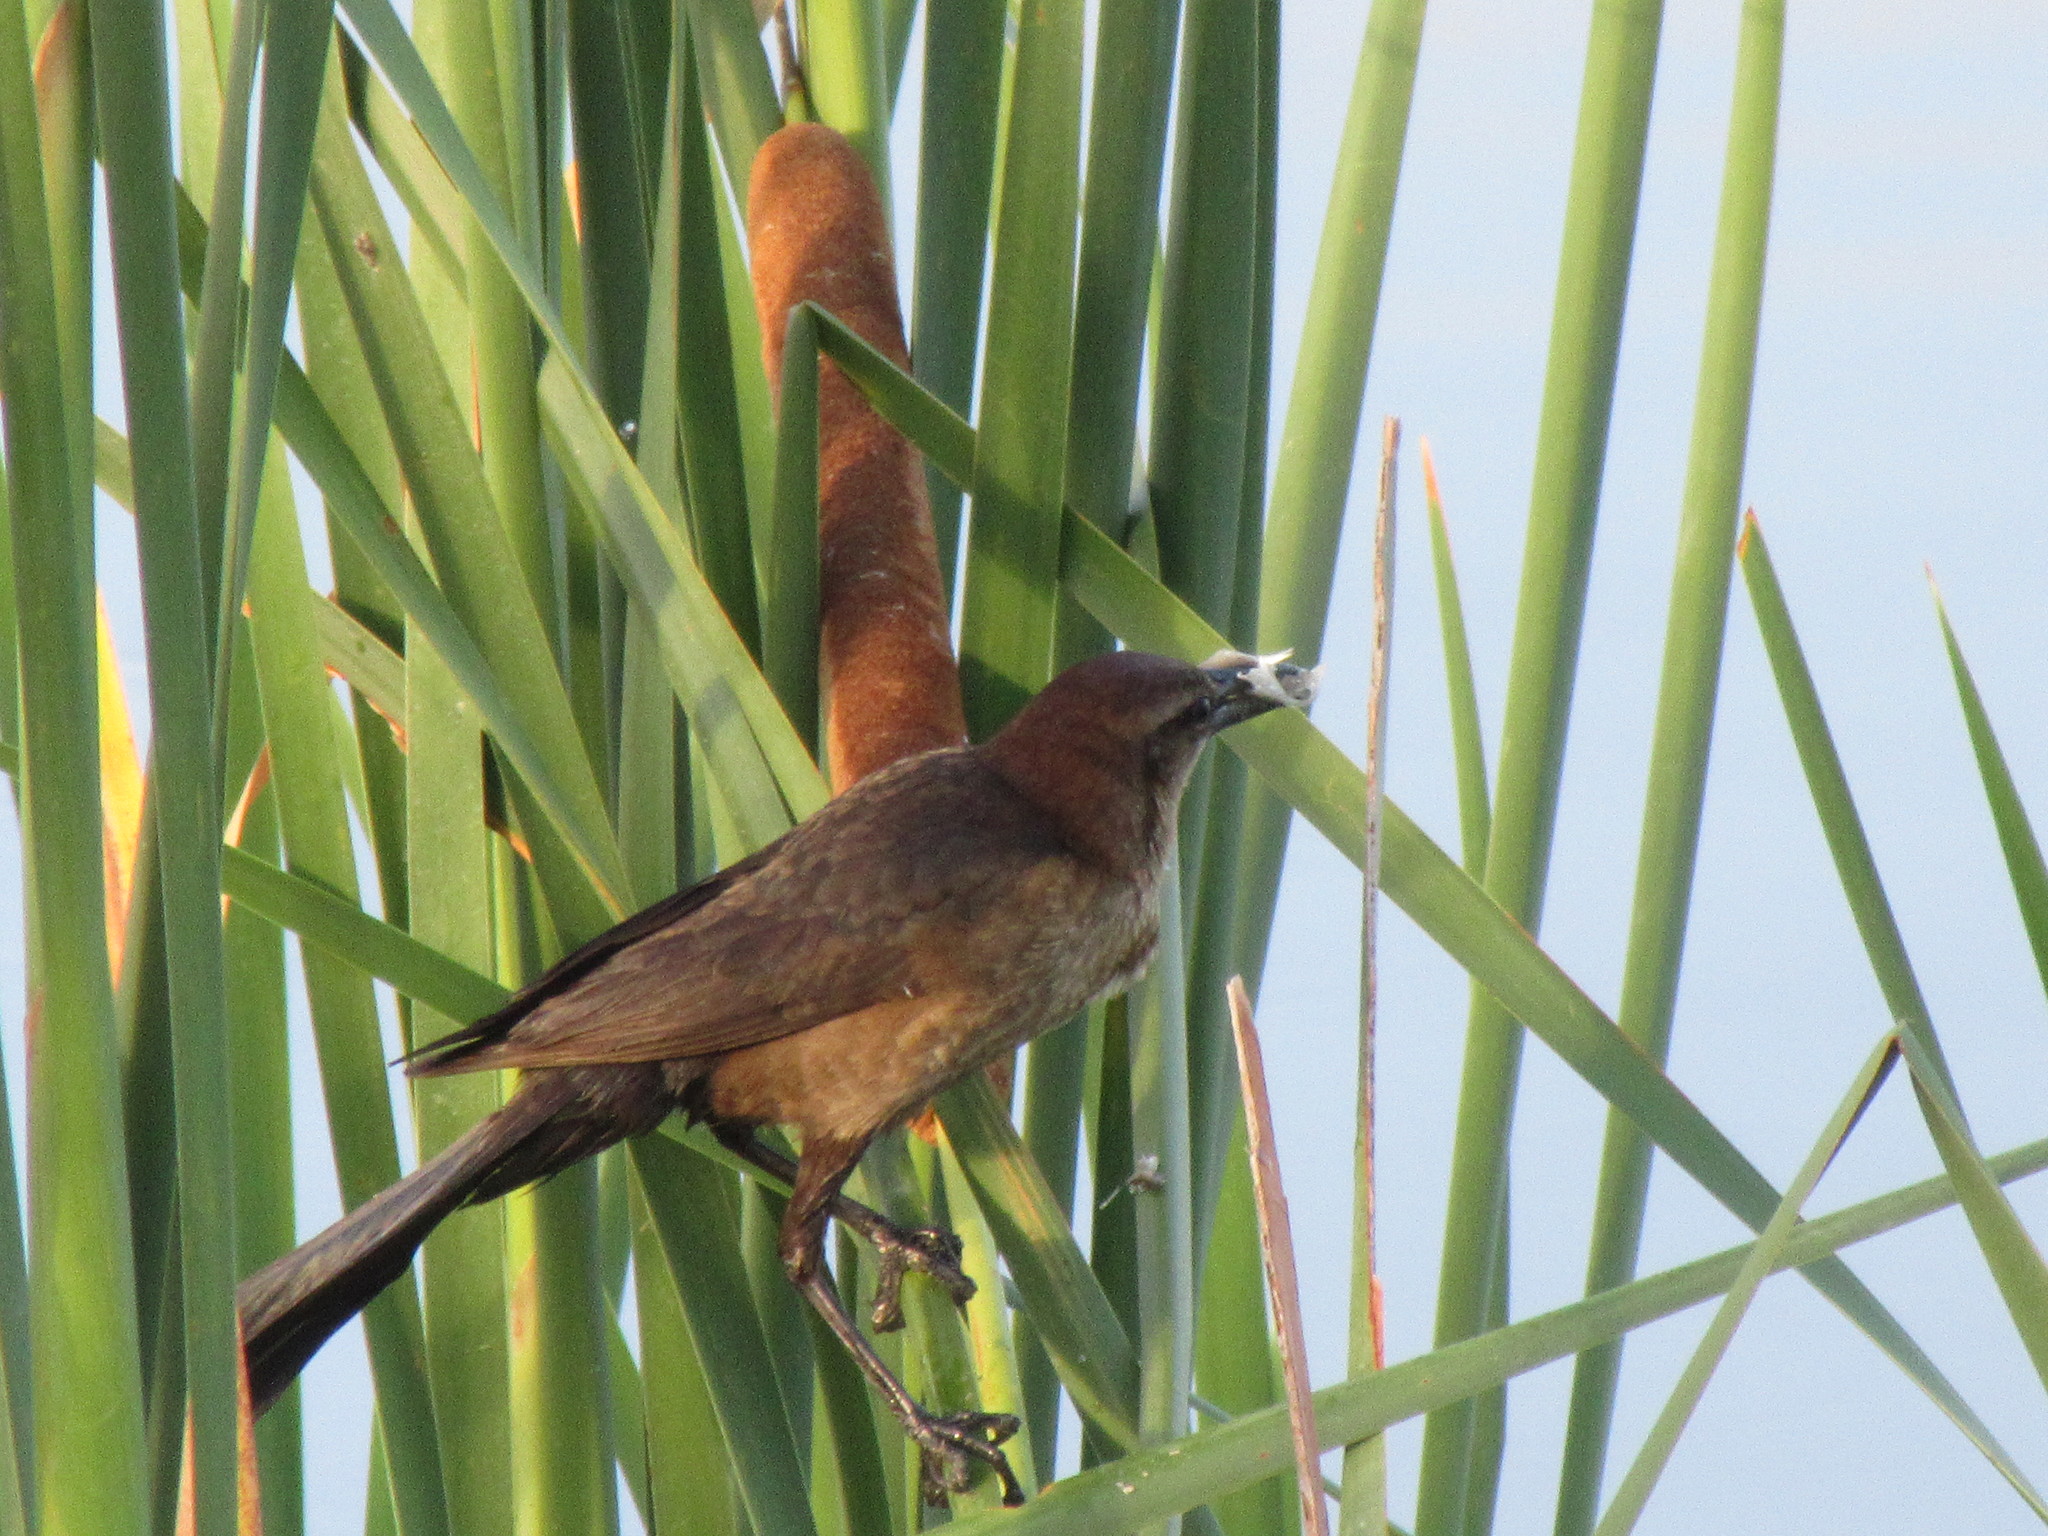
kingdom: Animalia
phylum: Chordata
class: Aves
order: Passeriformes
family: Icteridae
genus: Quiscalus
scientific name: Quiscalus major
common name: Boat-tailed grackle
